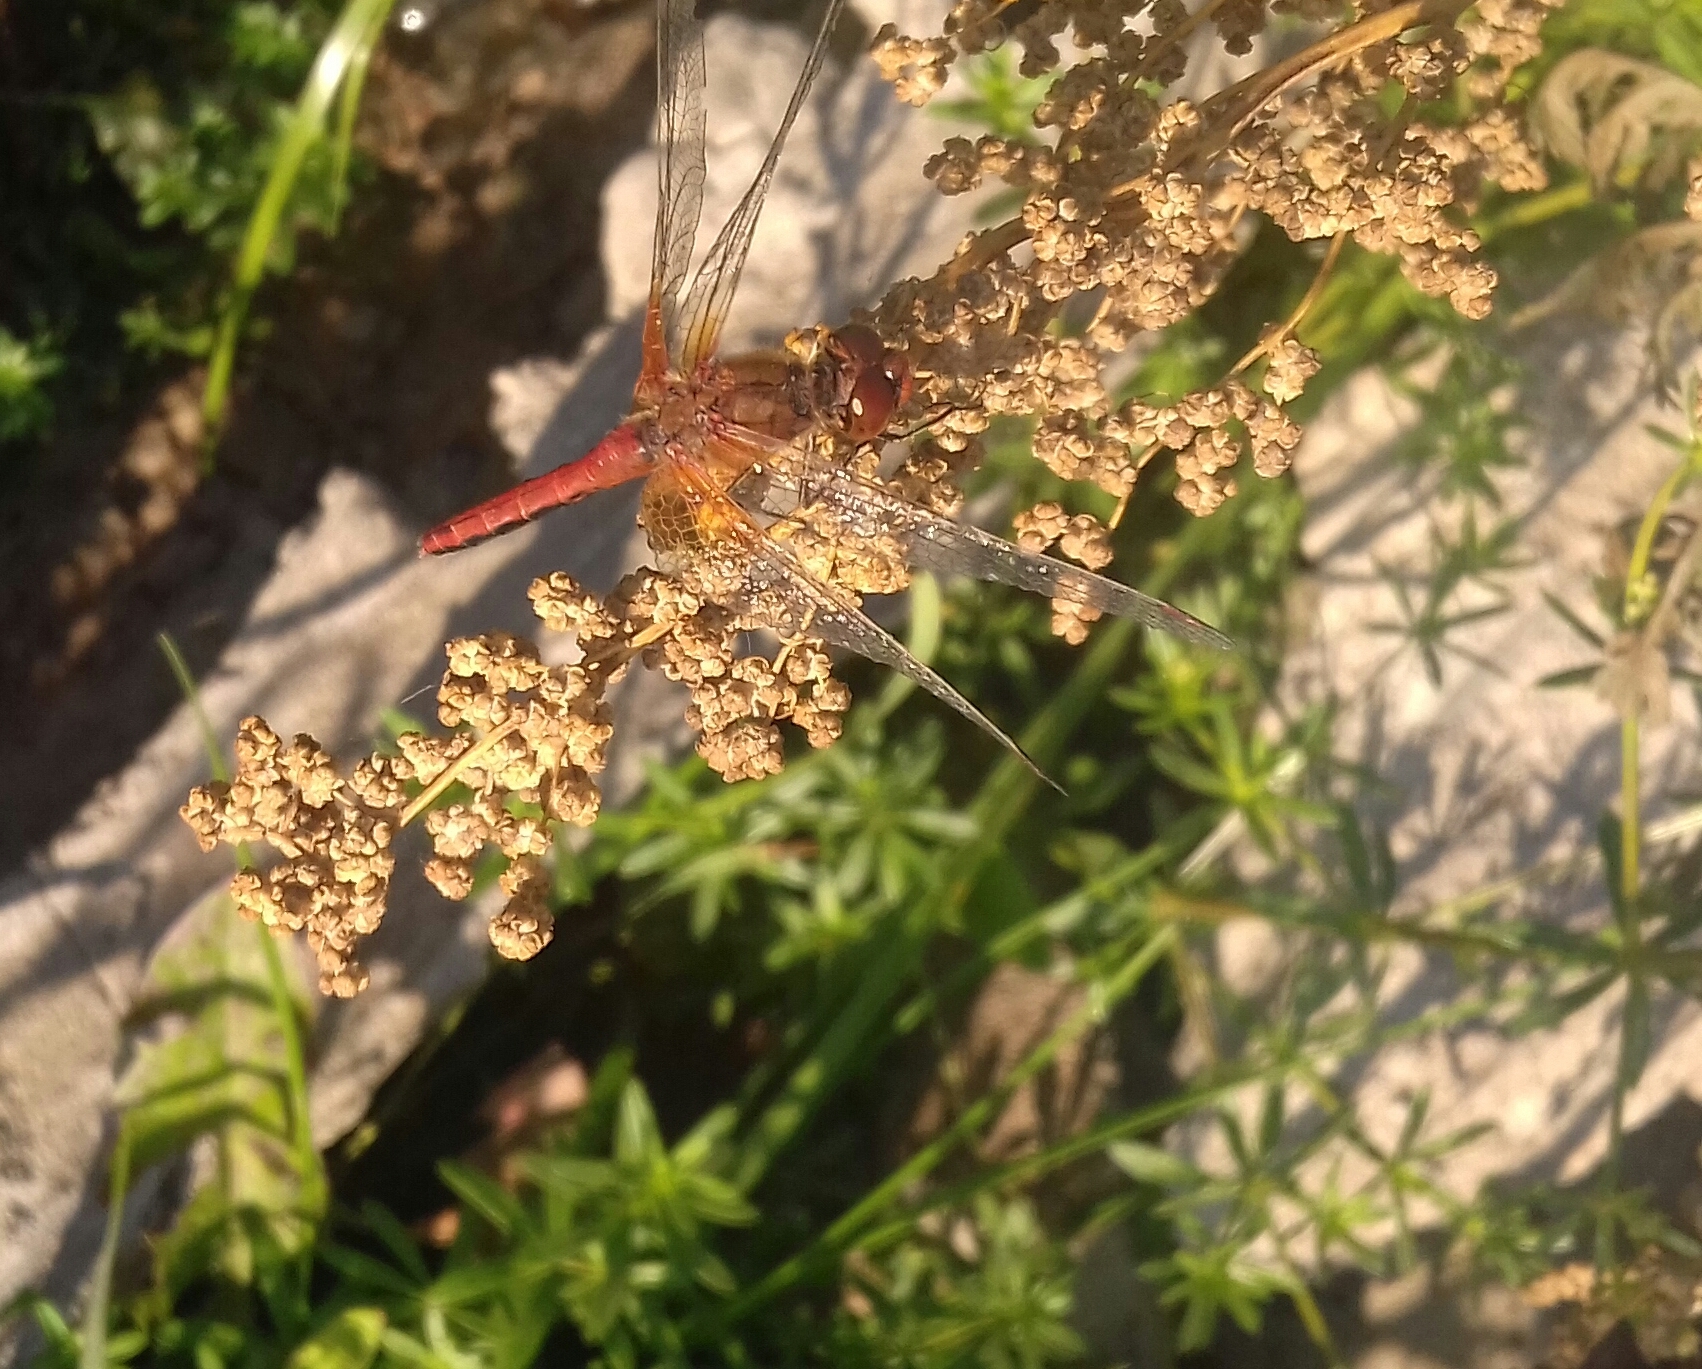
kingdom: Animalia
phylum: Arthropoda
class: Insecta
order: Odonata
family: Libellulidae
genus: Sympetrum
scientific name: Sympetrum flaveolum
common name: Yellow-winged darter
